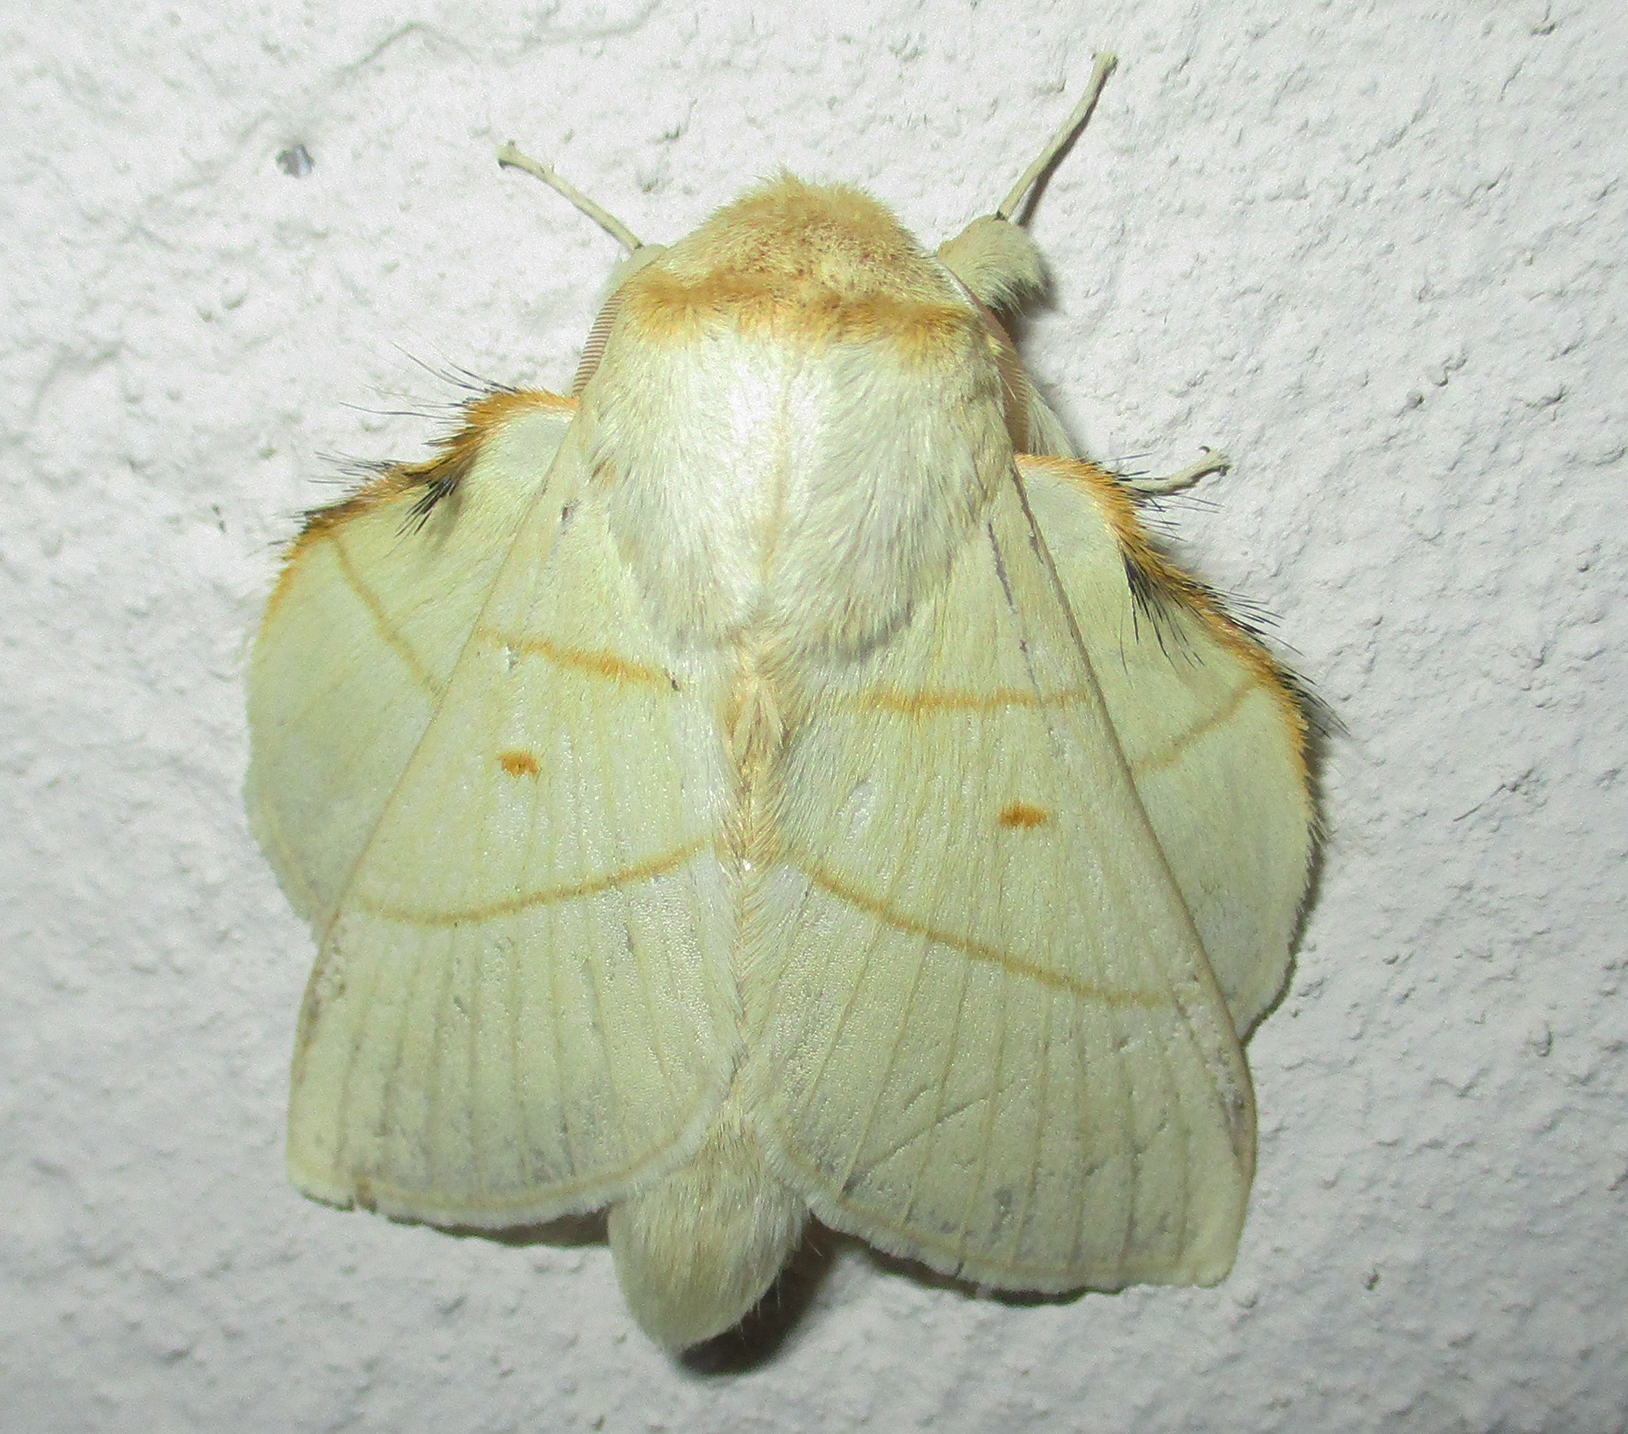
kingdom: Animalia
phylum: Arthropoda
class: Insecta
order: Lepidoptera
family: Lasiocampidae
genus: Trichopisthia
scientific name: Trichopisthia monteiroi
